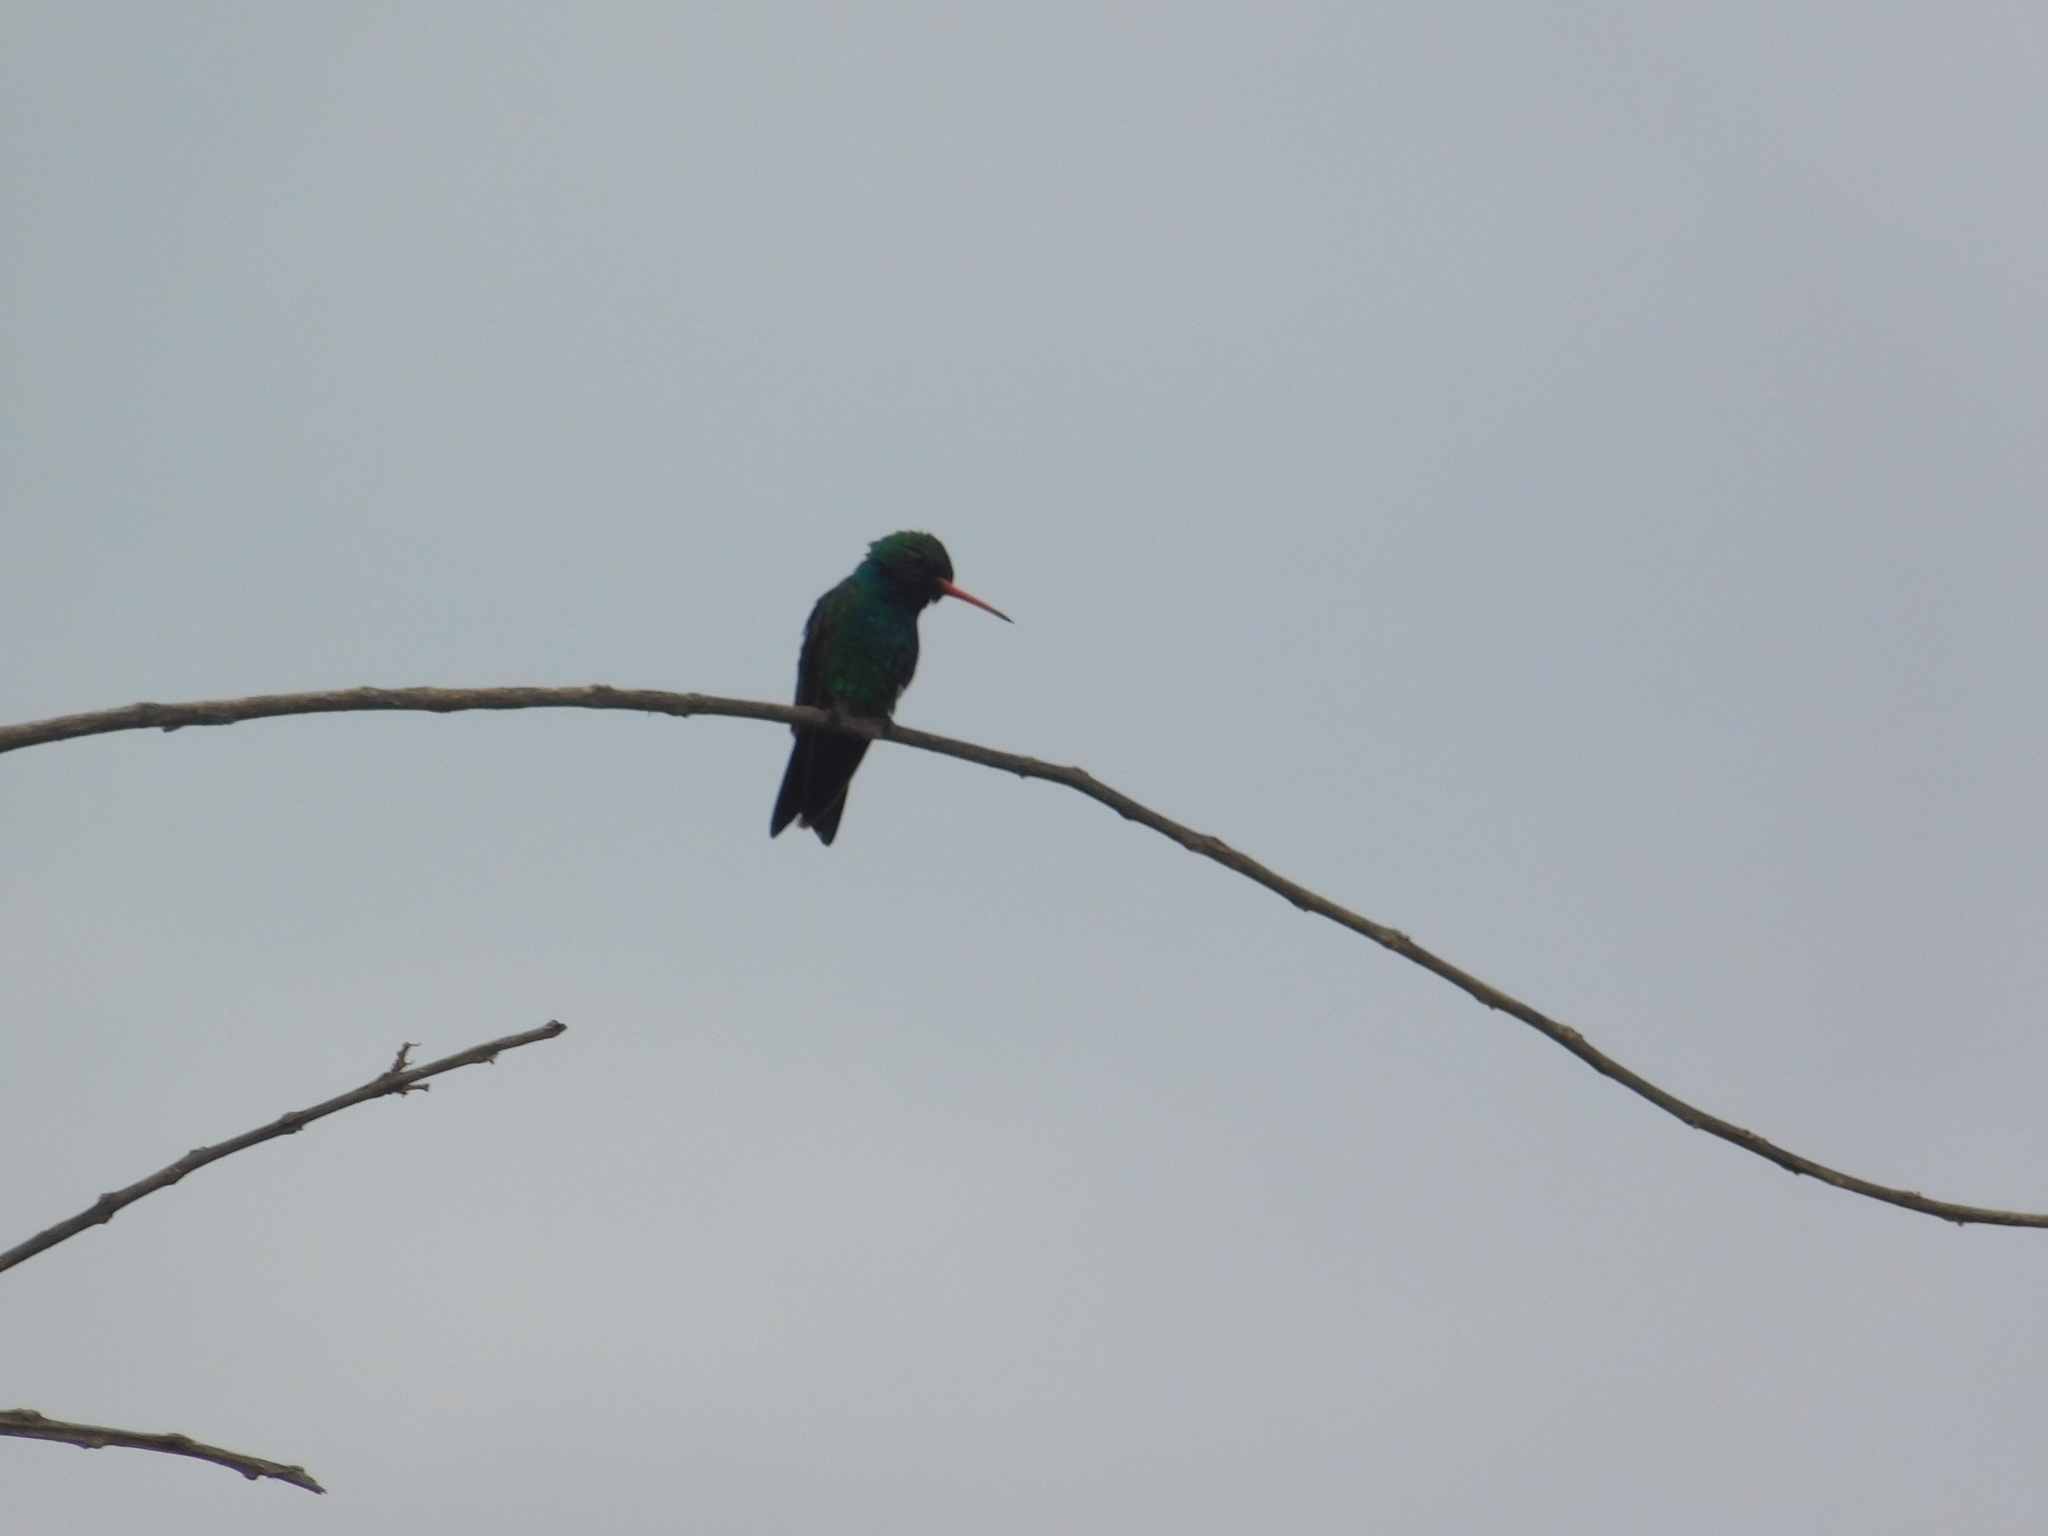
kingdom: Animalia
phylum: Chordata
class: Aves
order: Apodiformes
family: Trochilidae
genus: Chlorostilbon
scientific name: Chlorostilbon lucidus
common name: Glittering-bellied emerald
